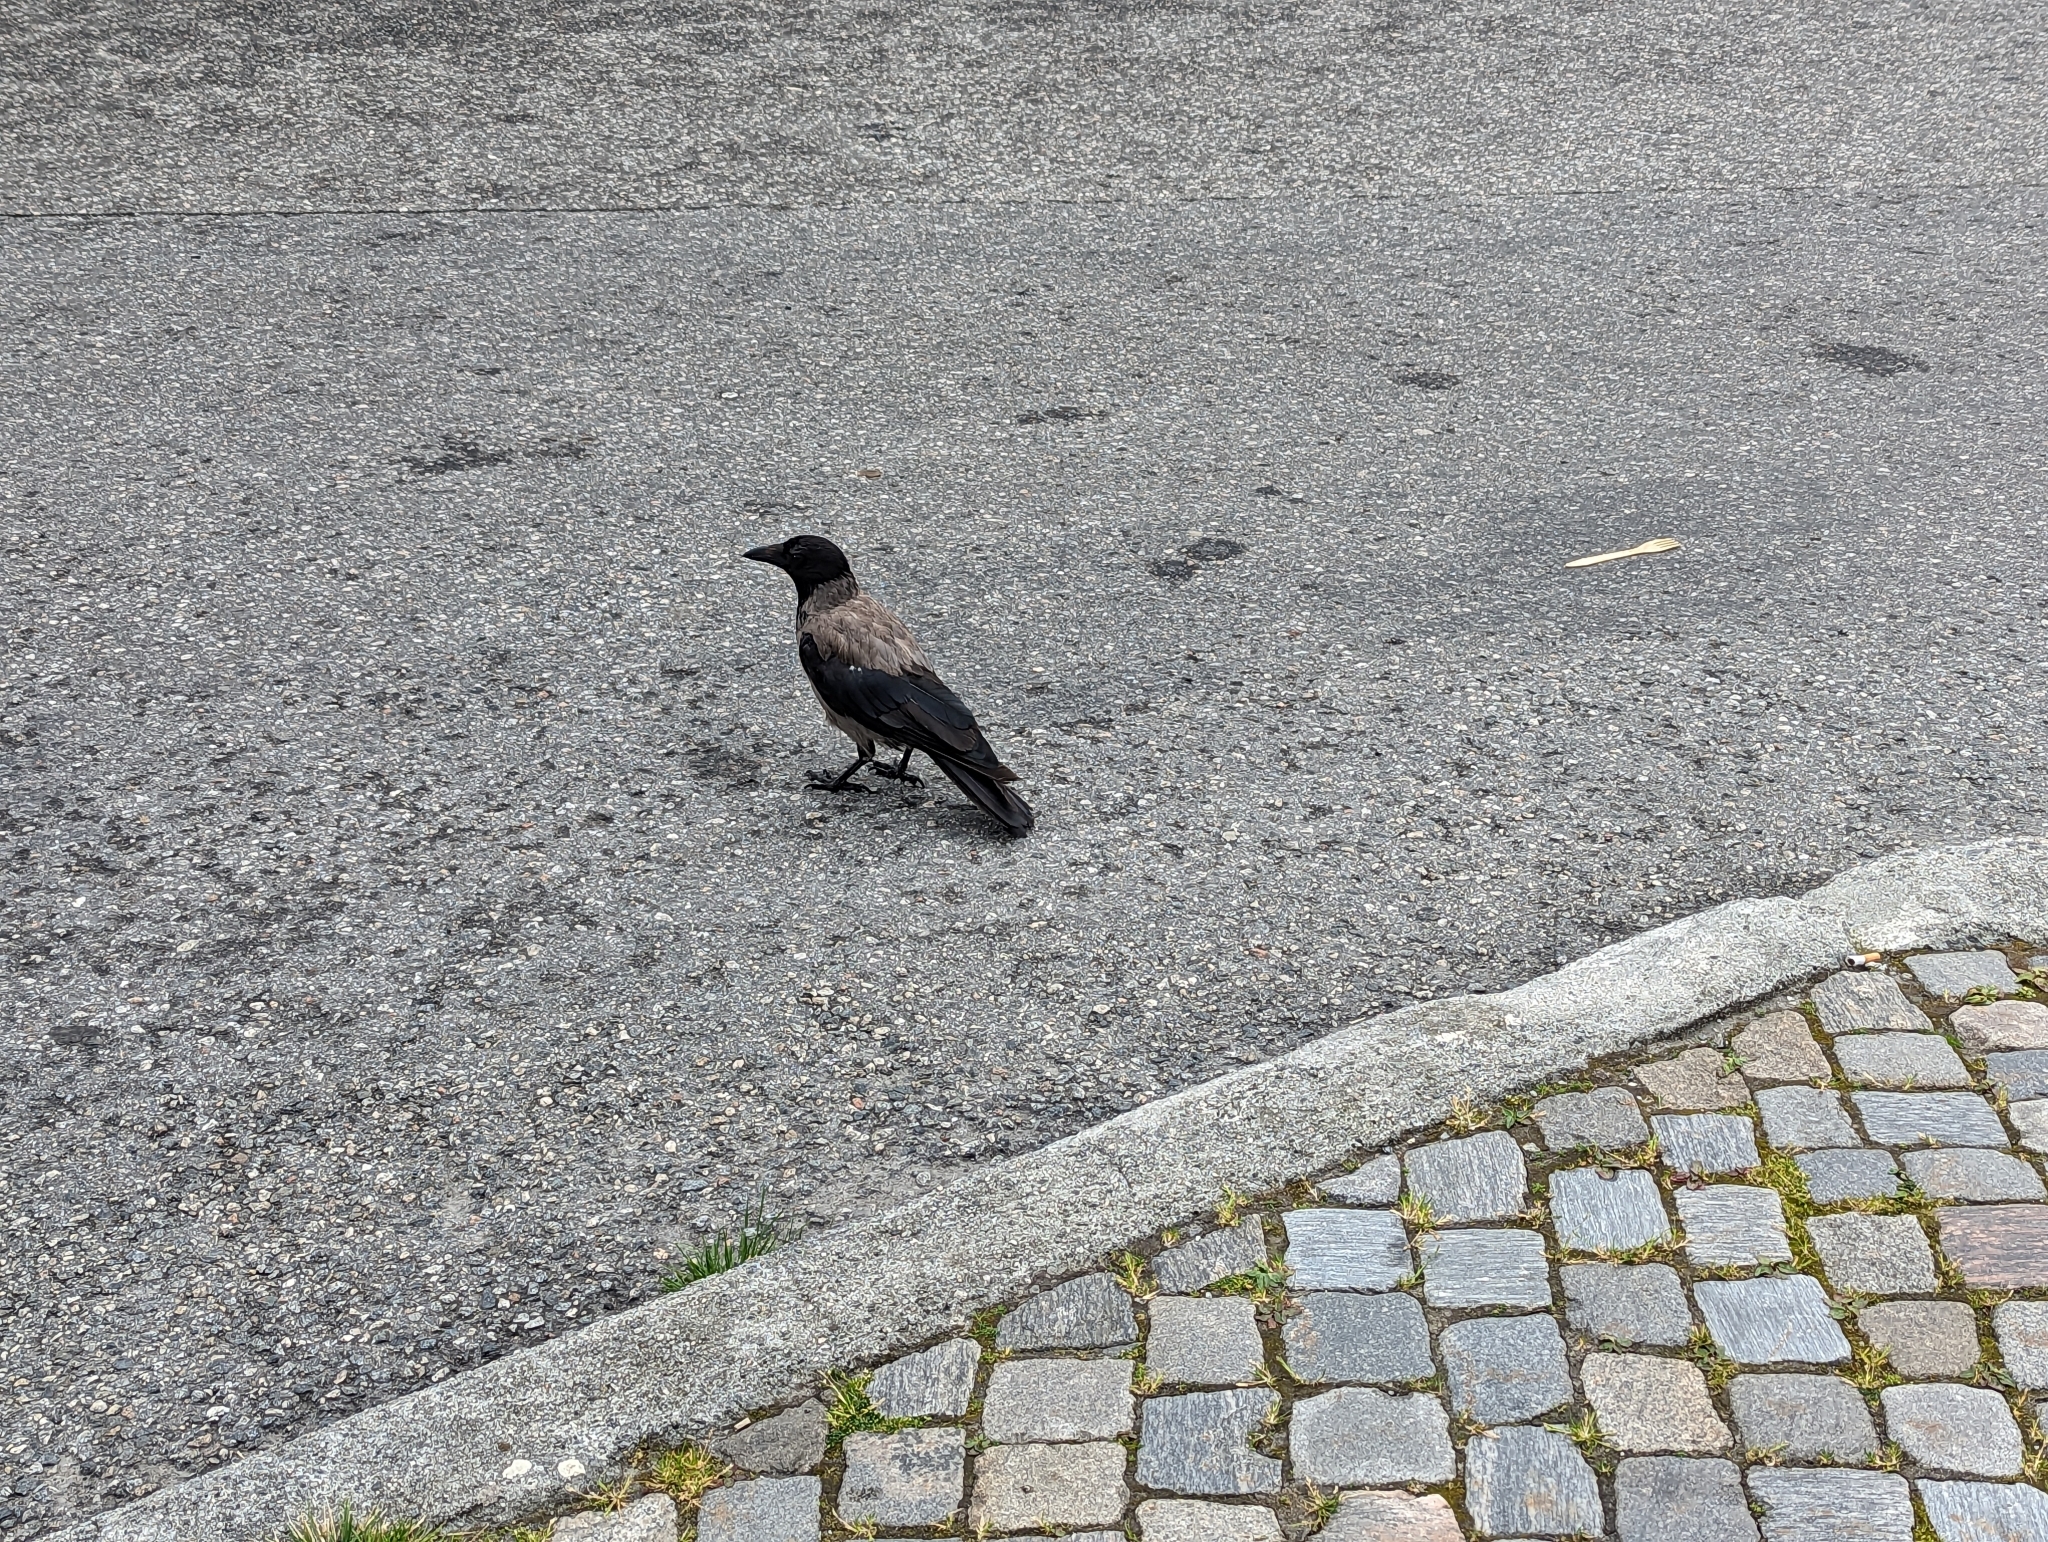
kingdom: Animalia
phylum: Chordata
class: Aves
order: Passeriformes
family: Corvidae
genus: Corvus
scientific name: Corvus cornix
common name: Hooded crow
